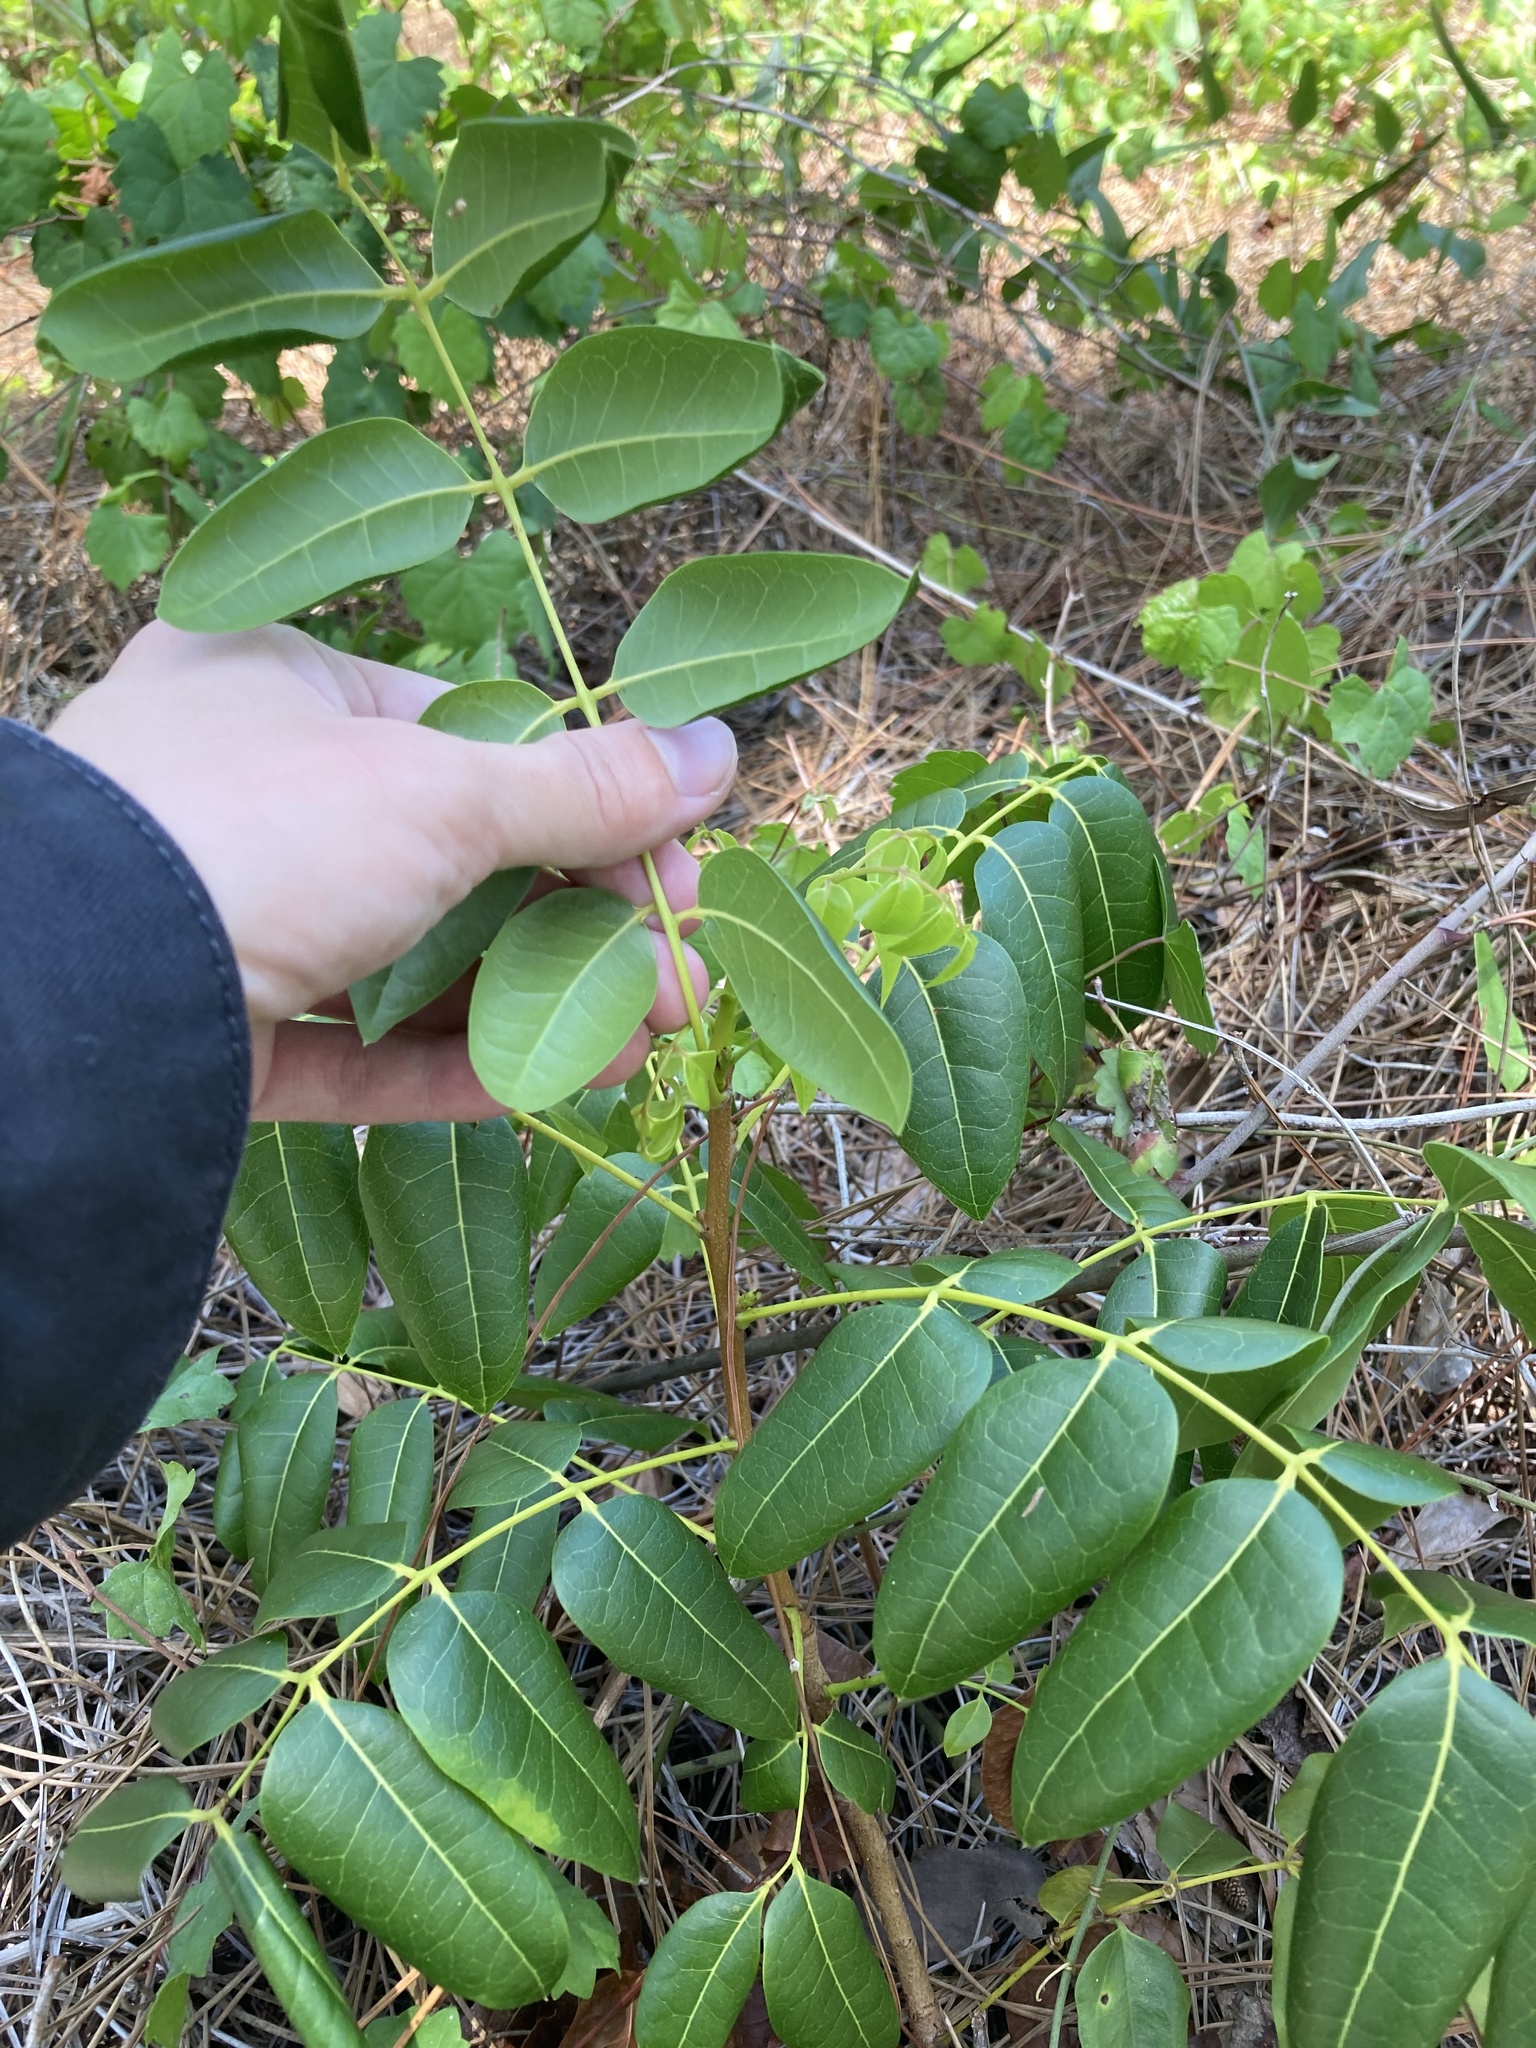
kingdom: Plantae
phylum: Tracheophyta
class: Magnoliopsida
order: Sapindales
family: Meliaceae
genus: Swietenia
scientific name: Swietenia mahagoni
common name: West indian mahogany
